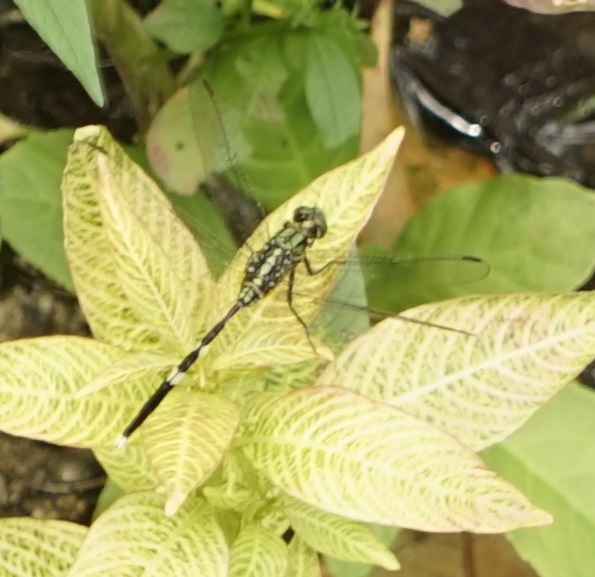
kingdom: Animalia
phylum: Arthropoda
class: Insecta
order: Odonata
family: Libellulidae
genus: Orthetrum
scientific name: Orthetrum sabina
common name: Slender skimmer
